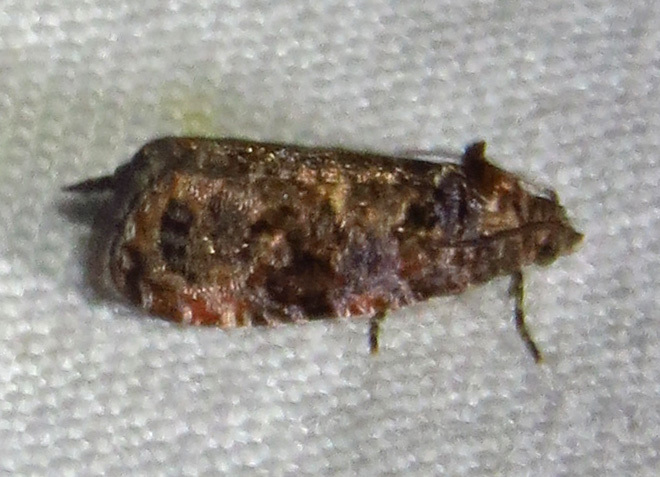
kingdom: Animalia
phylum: Arthropoda
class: Insecta
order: Lepidoptera
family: Tortricidae
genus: Endothenia
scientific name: Endothenia hebesana
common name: Verbena bud moth
